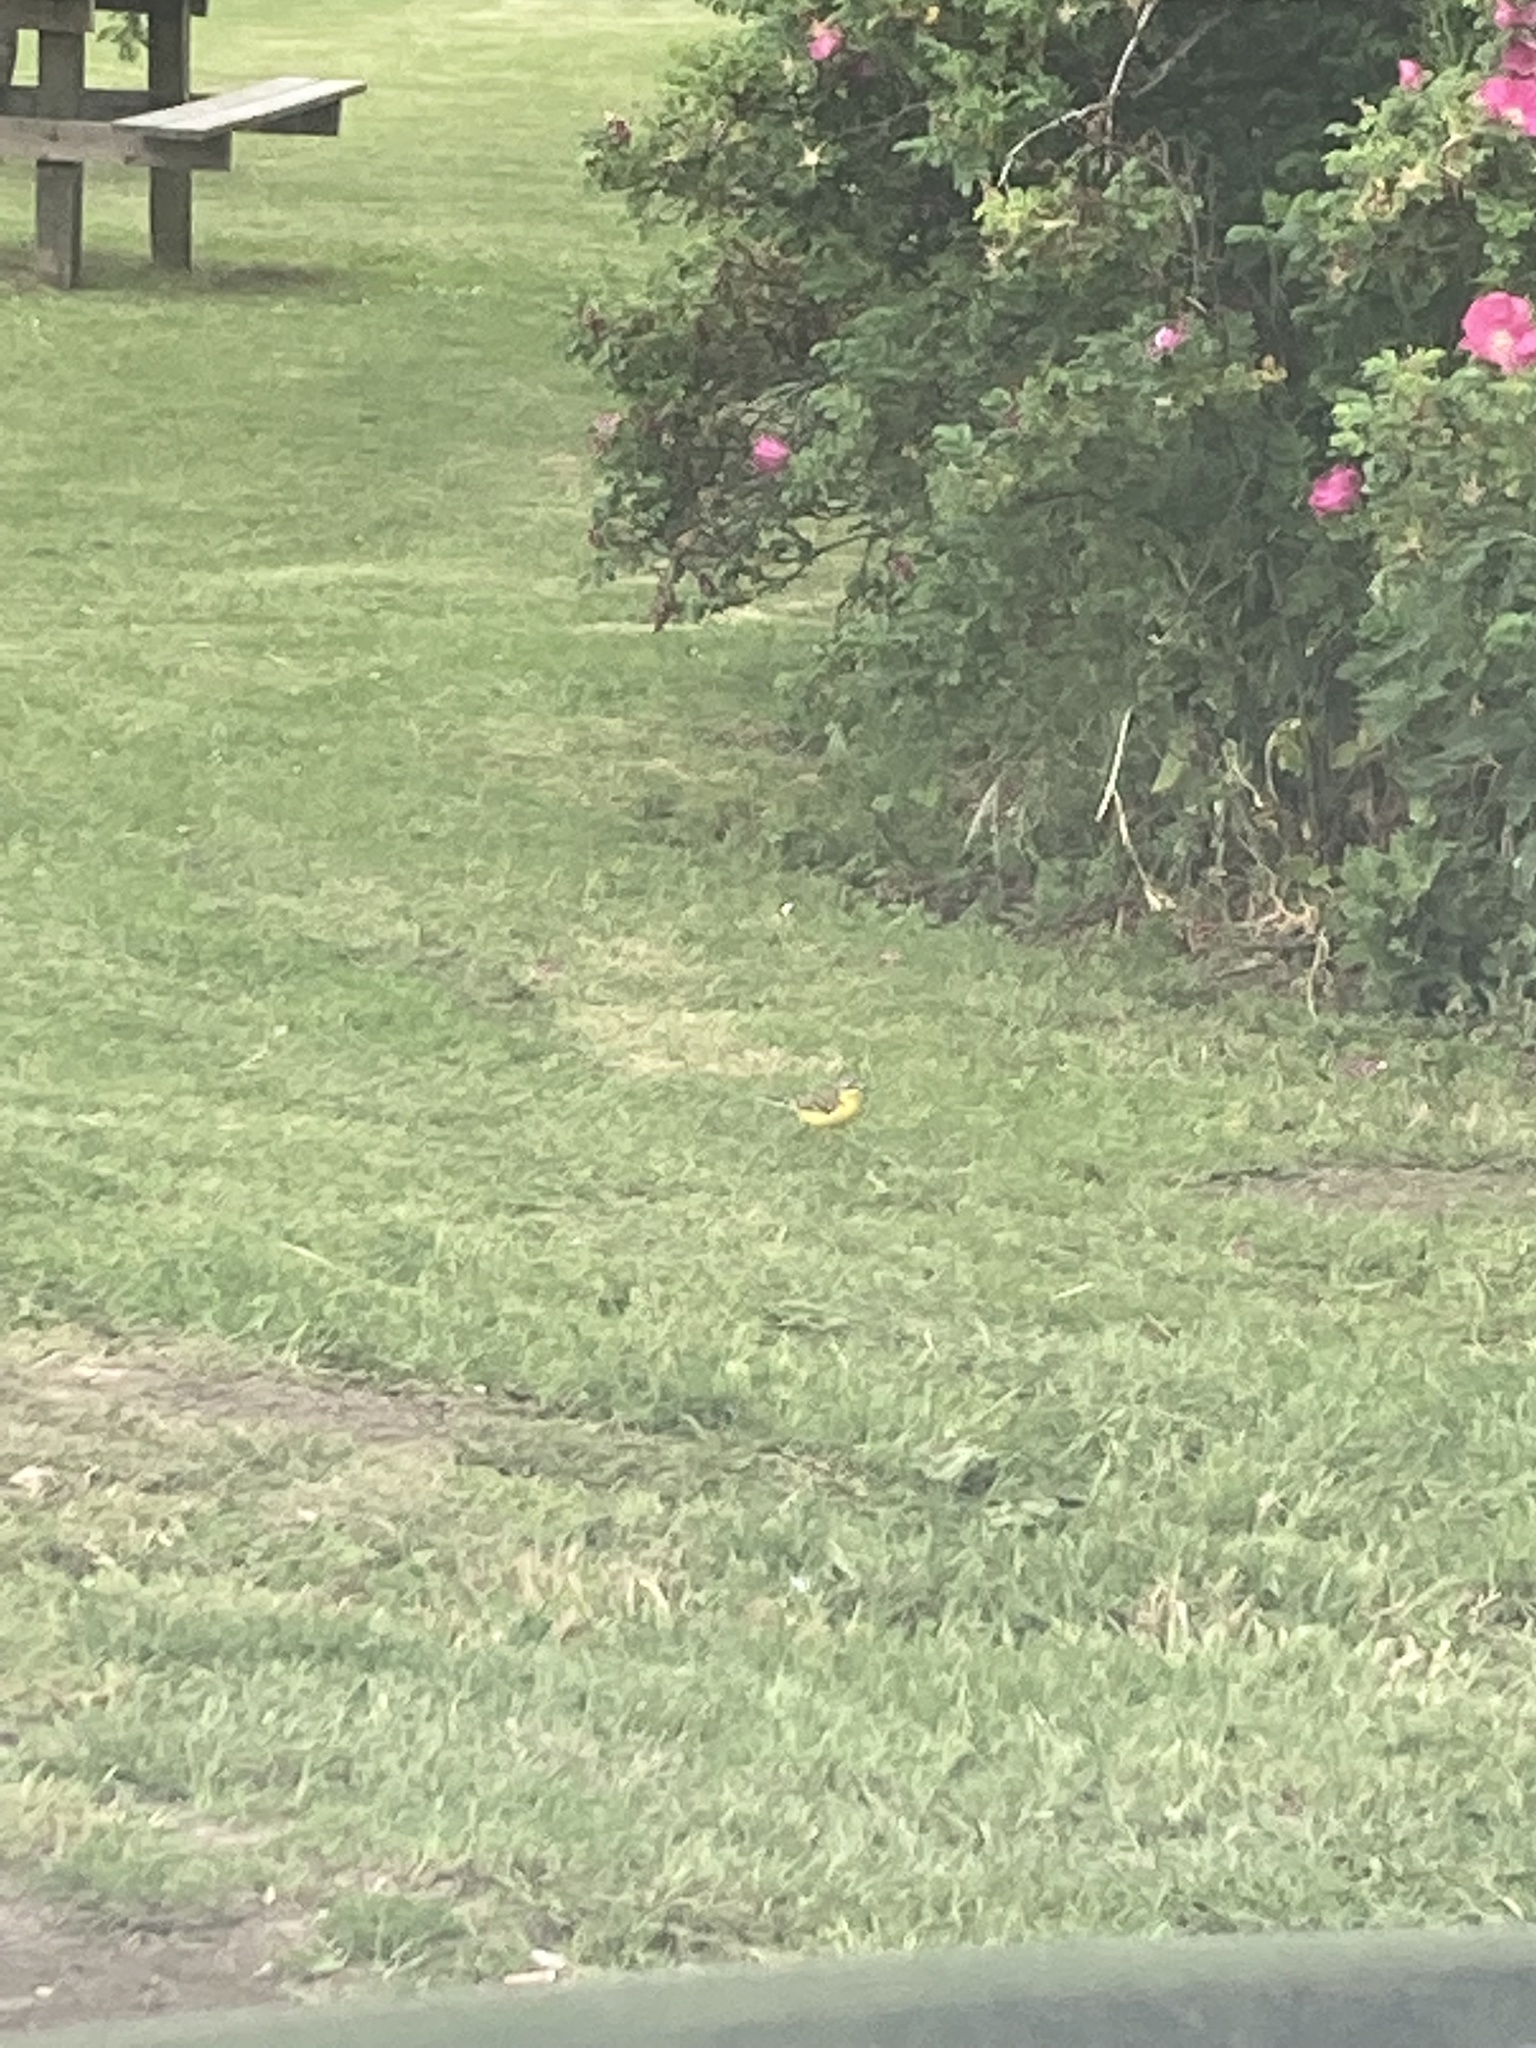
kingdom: Animalia
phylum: Chordata
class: Aves
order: Passeriformes
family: Motacillidae
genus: Motacilla
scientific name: Motacilla flava
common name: Western yellow wagtail
